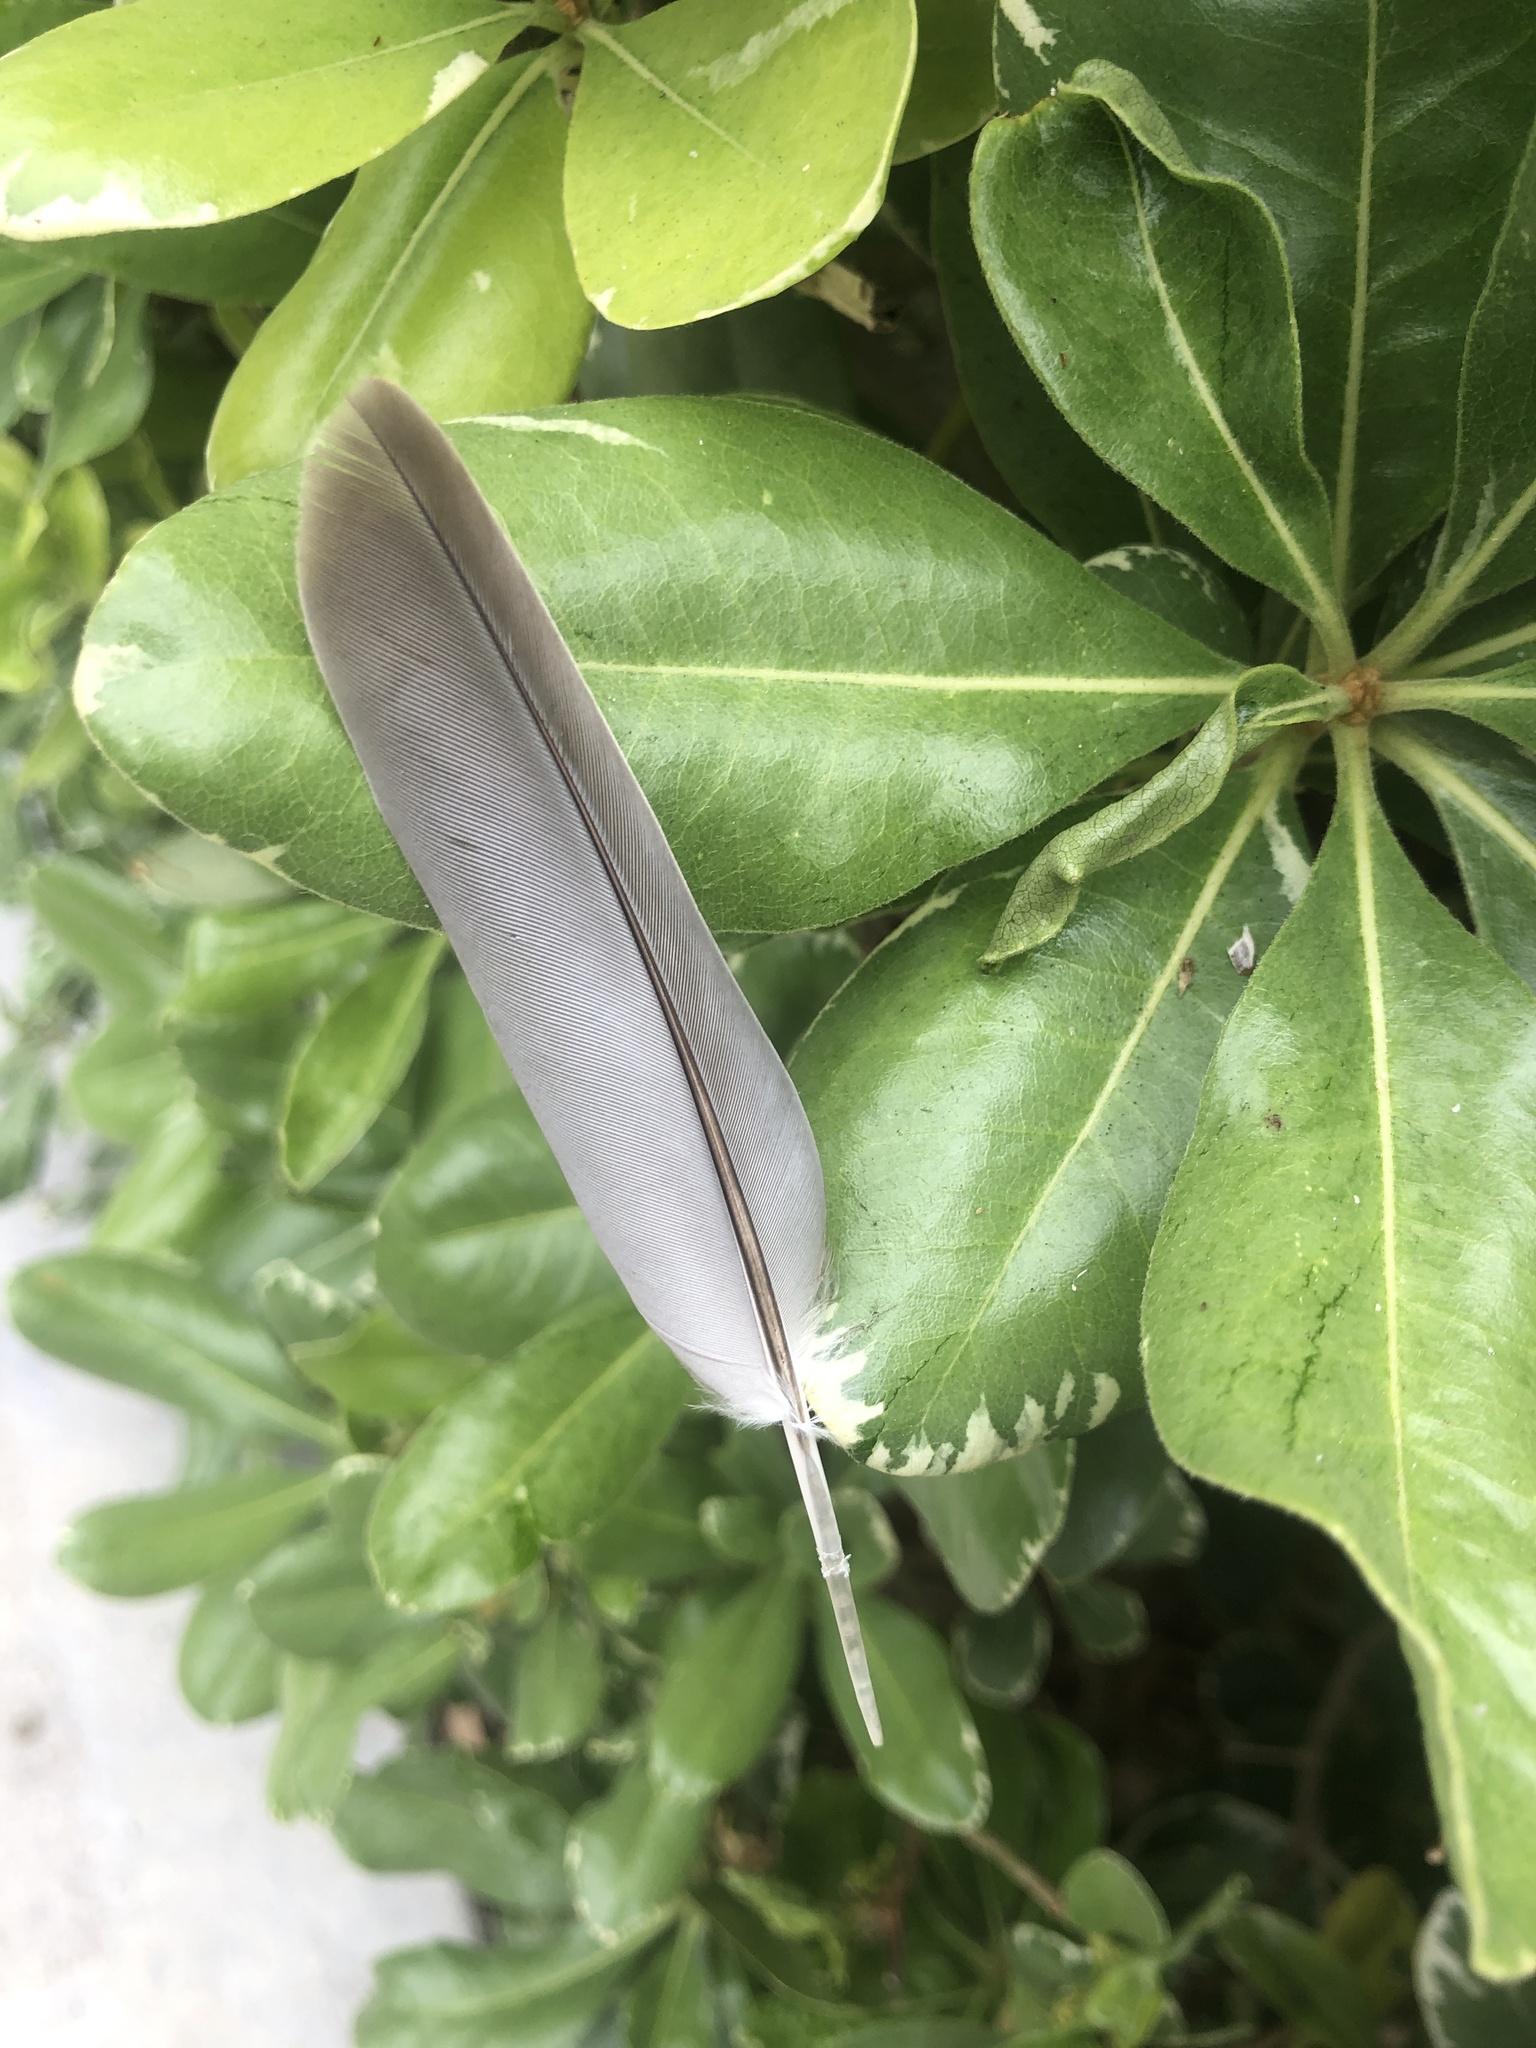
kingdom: Animalia
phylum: Chordata
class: Aves
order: Columbiformes
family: Columbidae
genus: Zenaida
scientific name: Zenaida macroura
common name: Mourning dove
